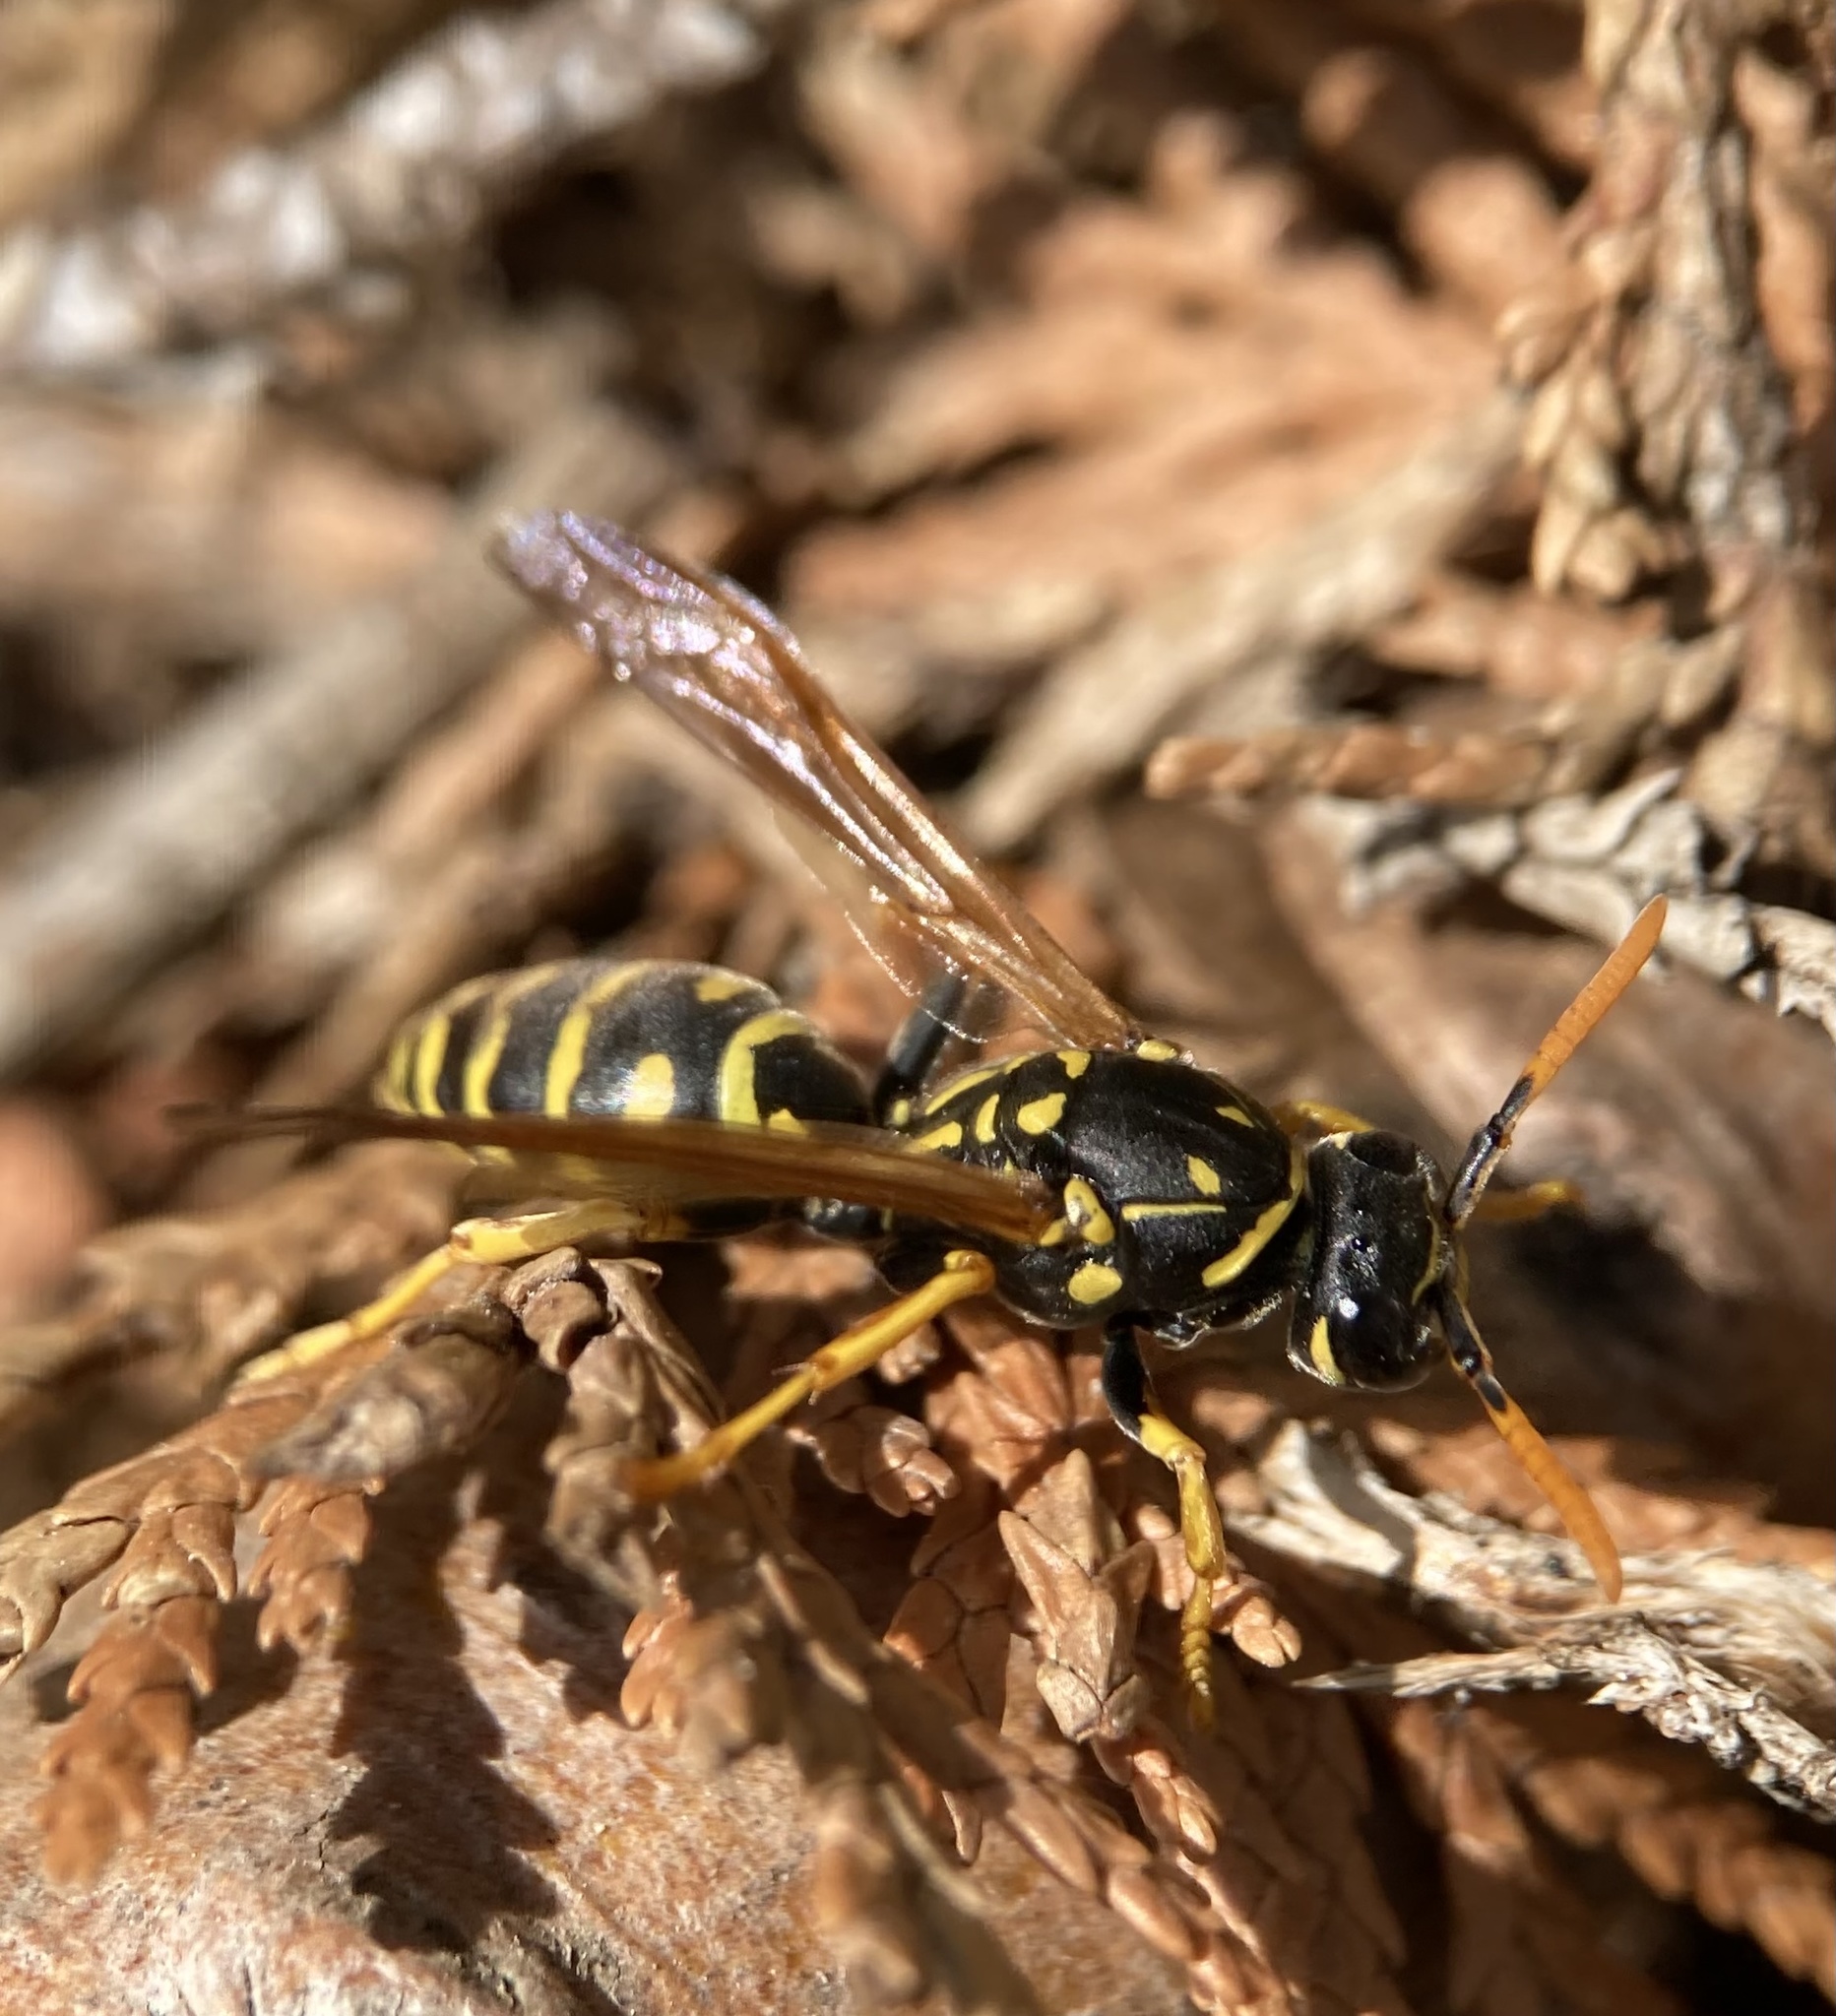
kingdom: Animalia
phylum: Arthropoda
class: Insecta
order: Hymenoptera
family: Eumenidae
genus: Polistes
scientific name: Polistes dominula
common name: Paper wasp
